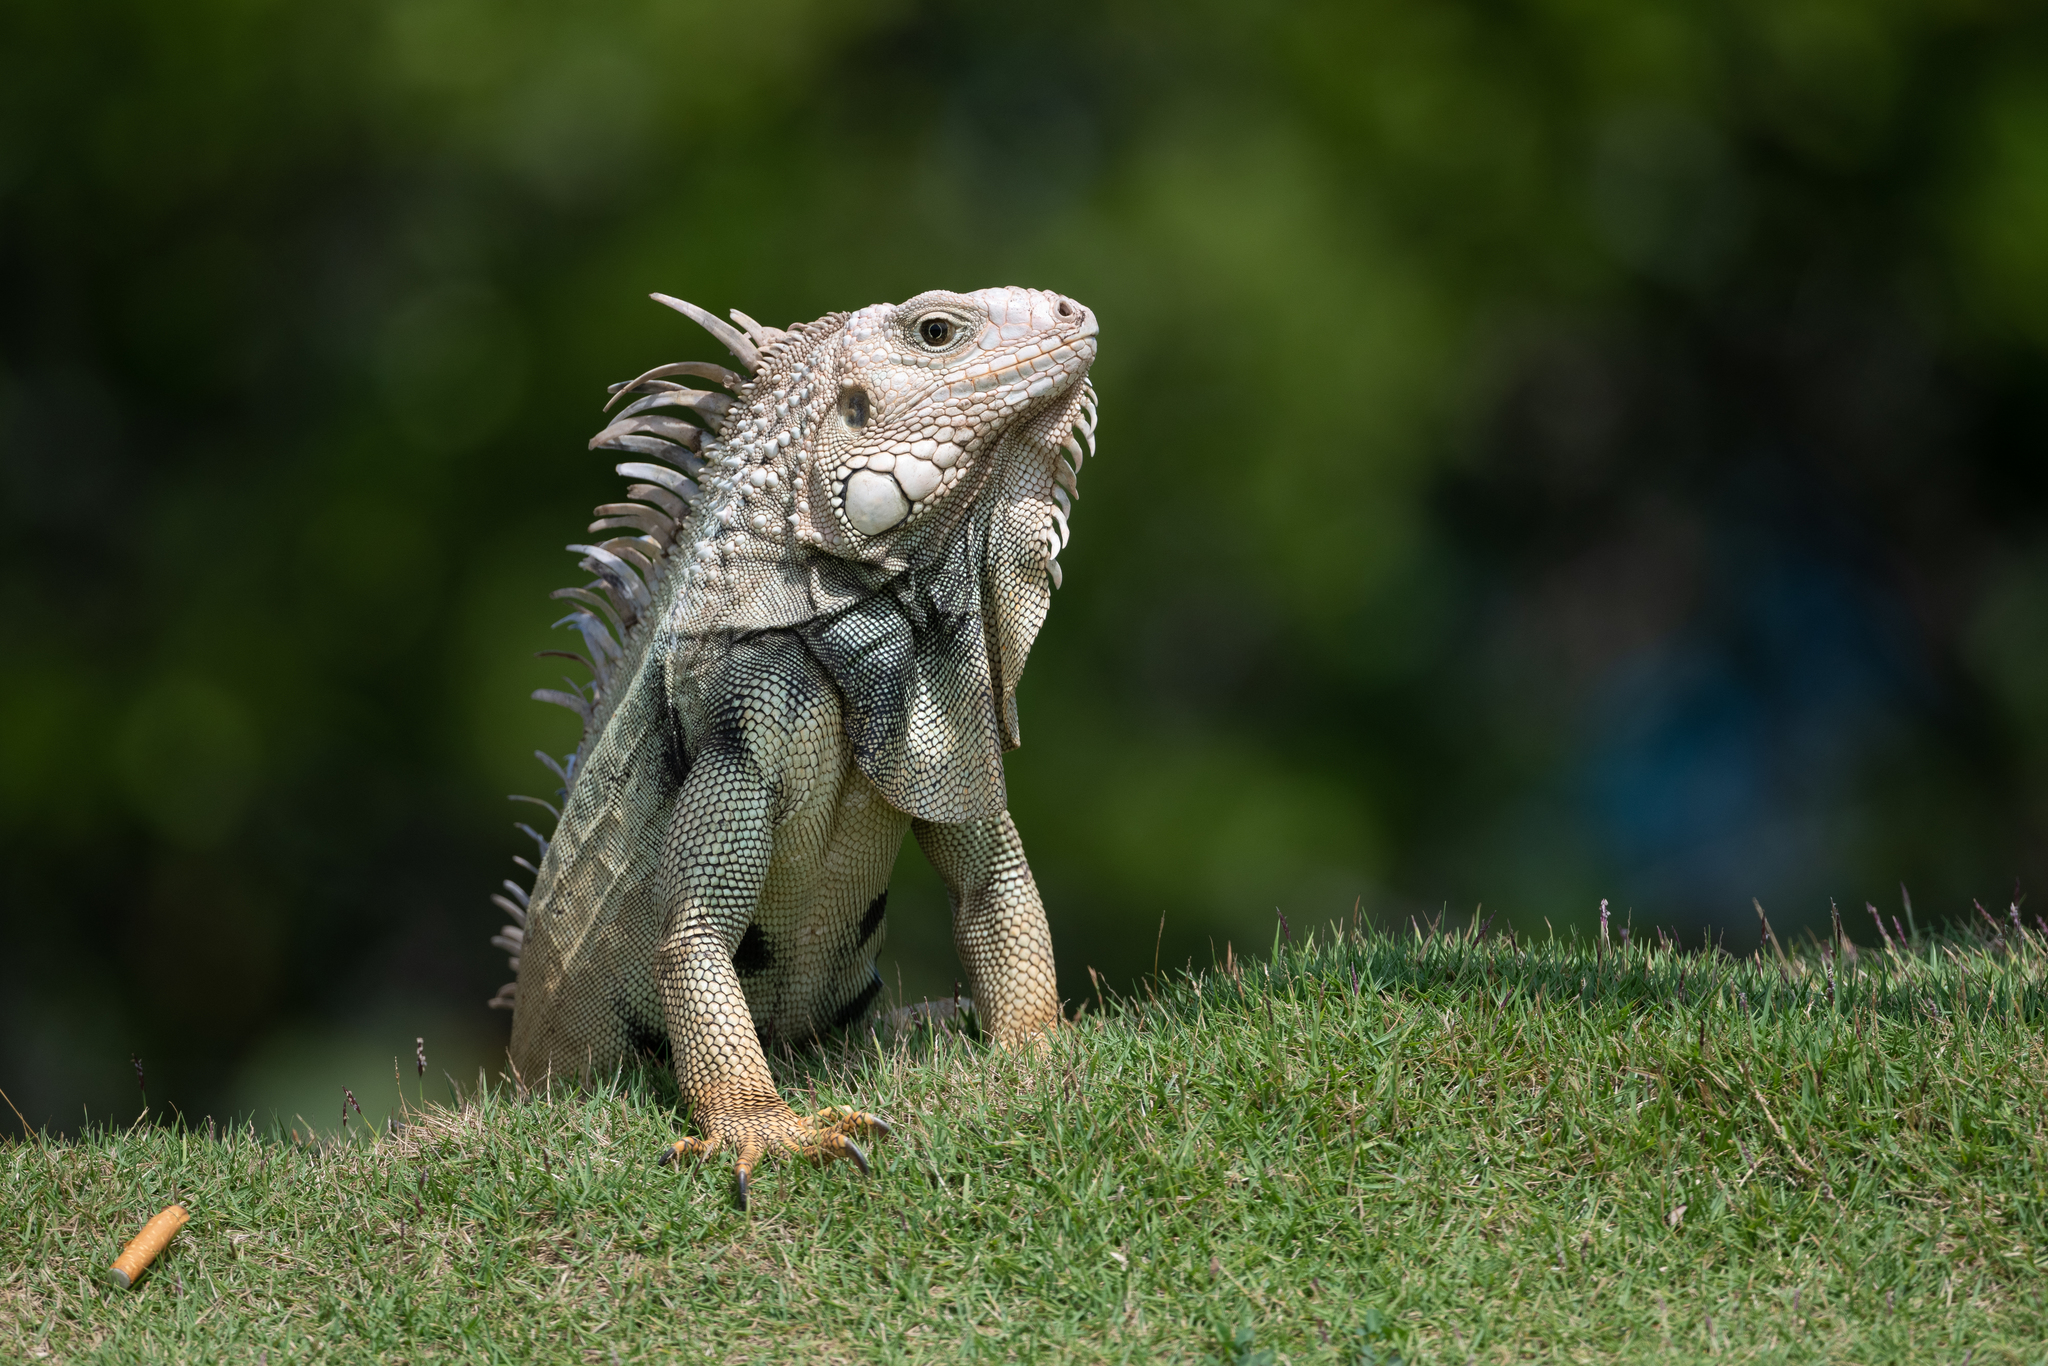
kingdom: Animalia
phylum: Chordata
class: Squamata
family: Iguanidae
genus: Iguana
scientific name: Iguana iguana
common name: Green iguana
